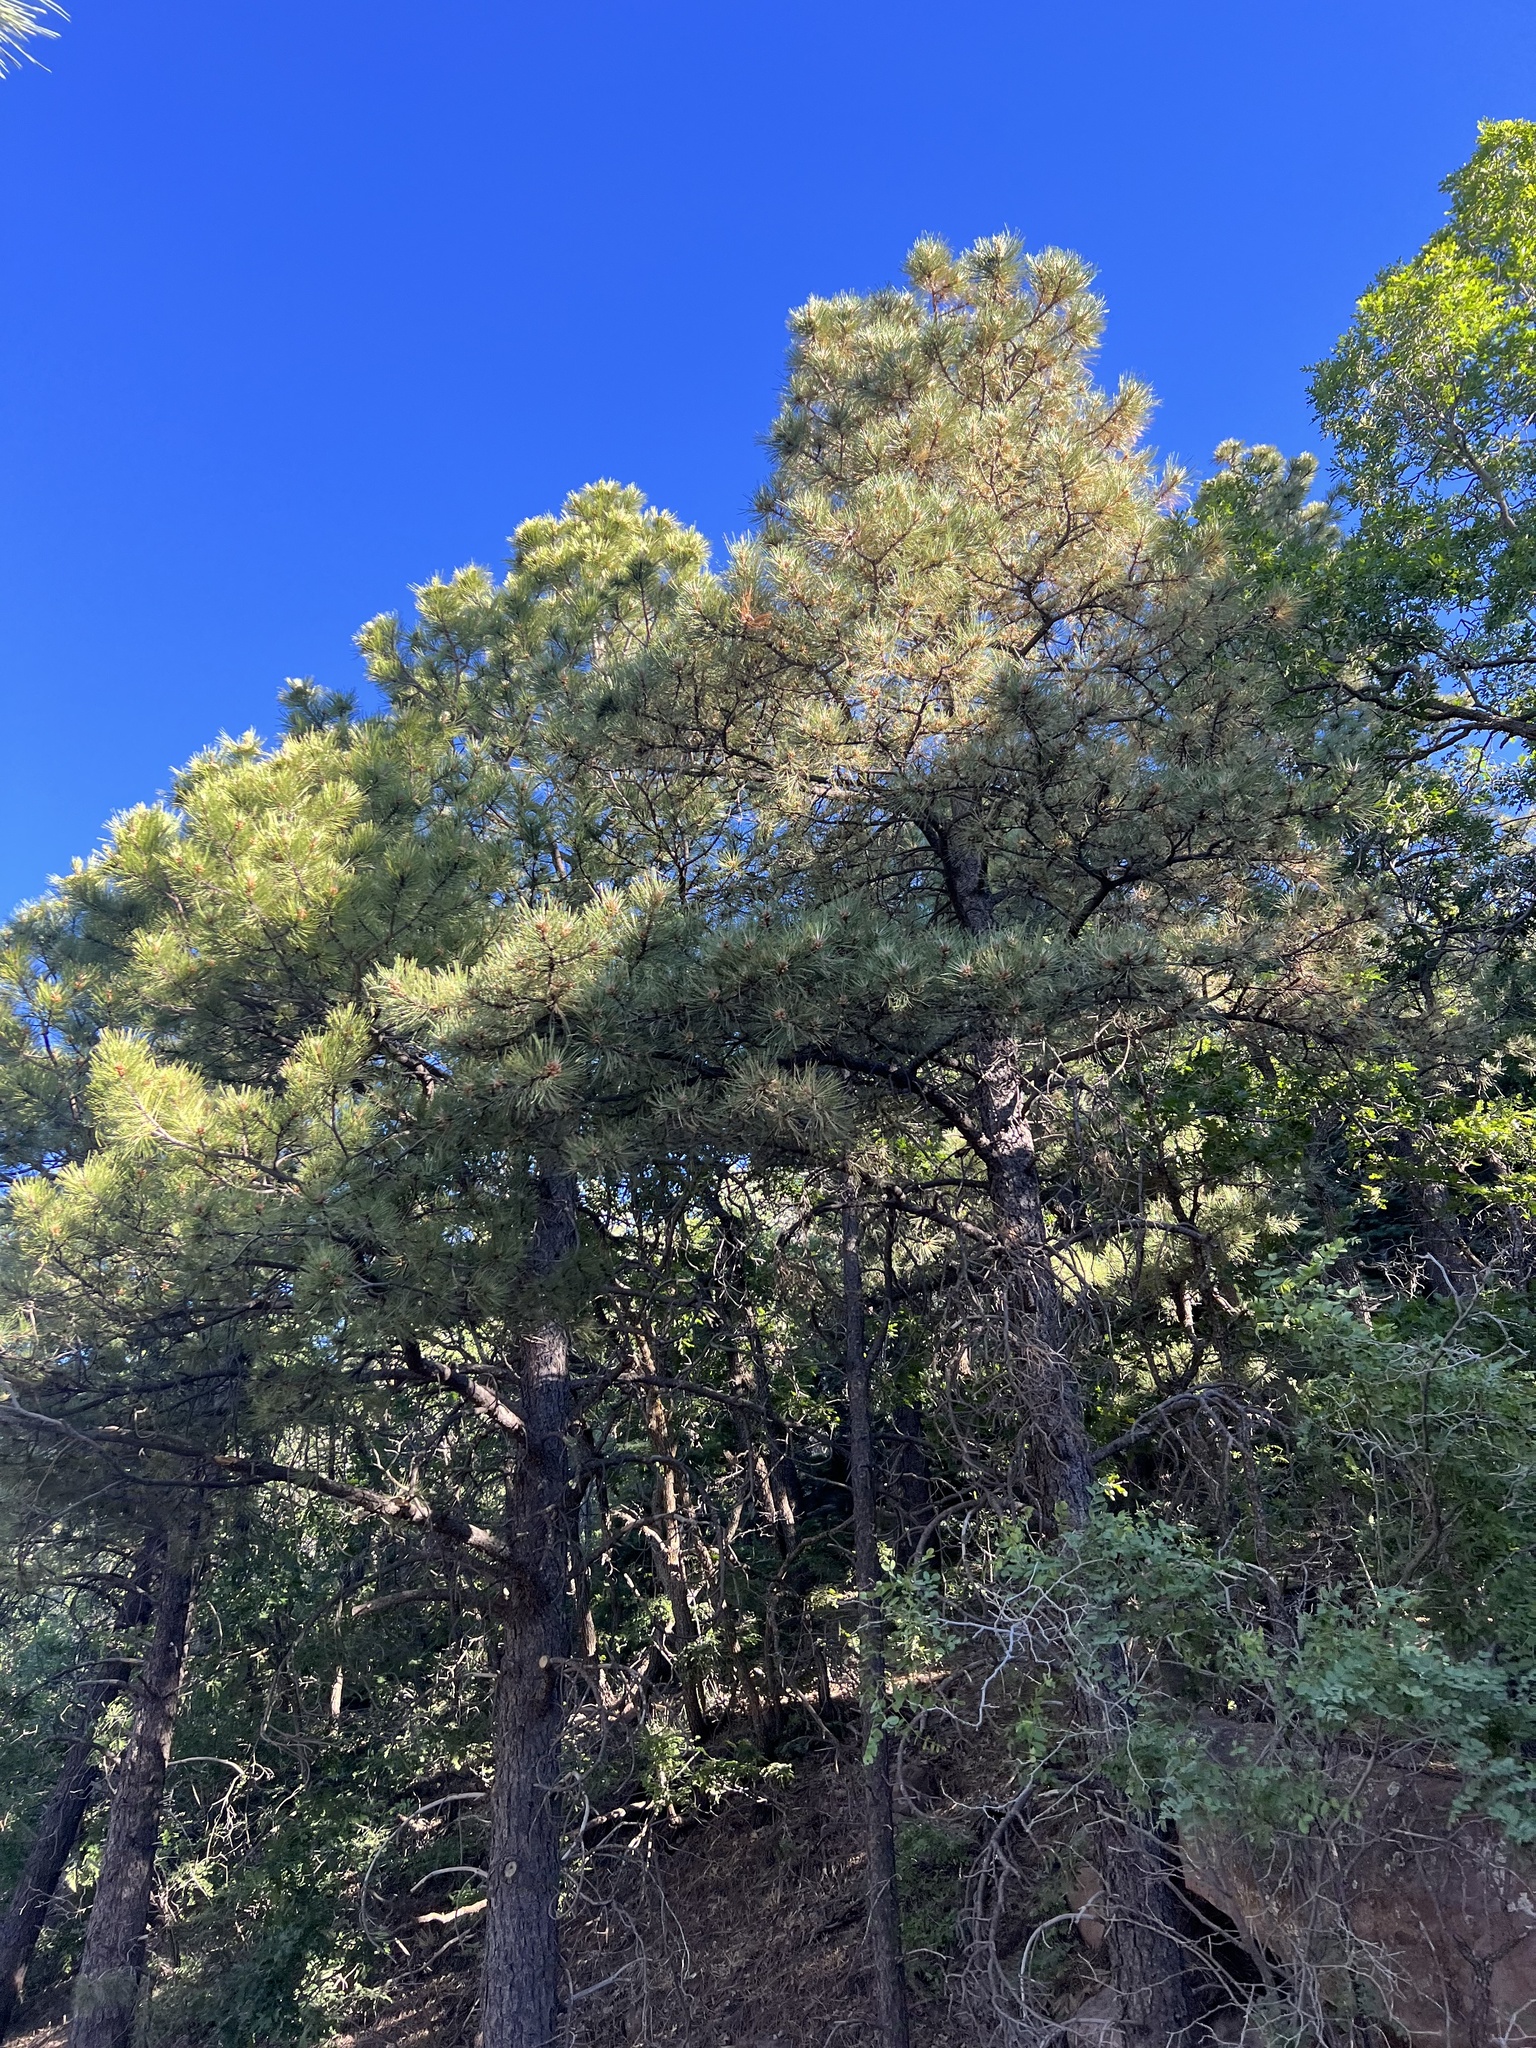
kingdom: Plantae
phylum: Tracheophyta
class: Pinopsida
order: Pinales
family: Pinaceae
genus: Pinus
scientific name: Pinus ponderosa
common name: Western yellow-pine
